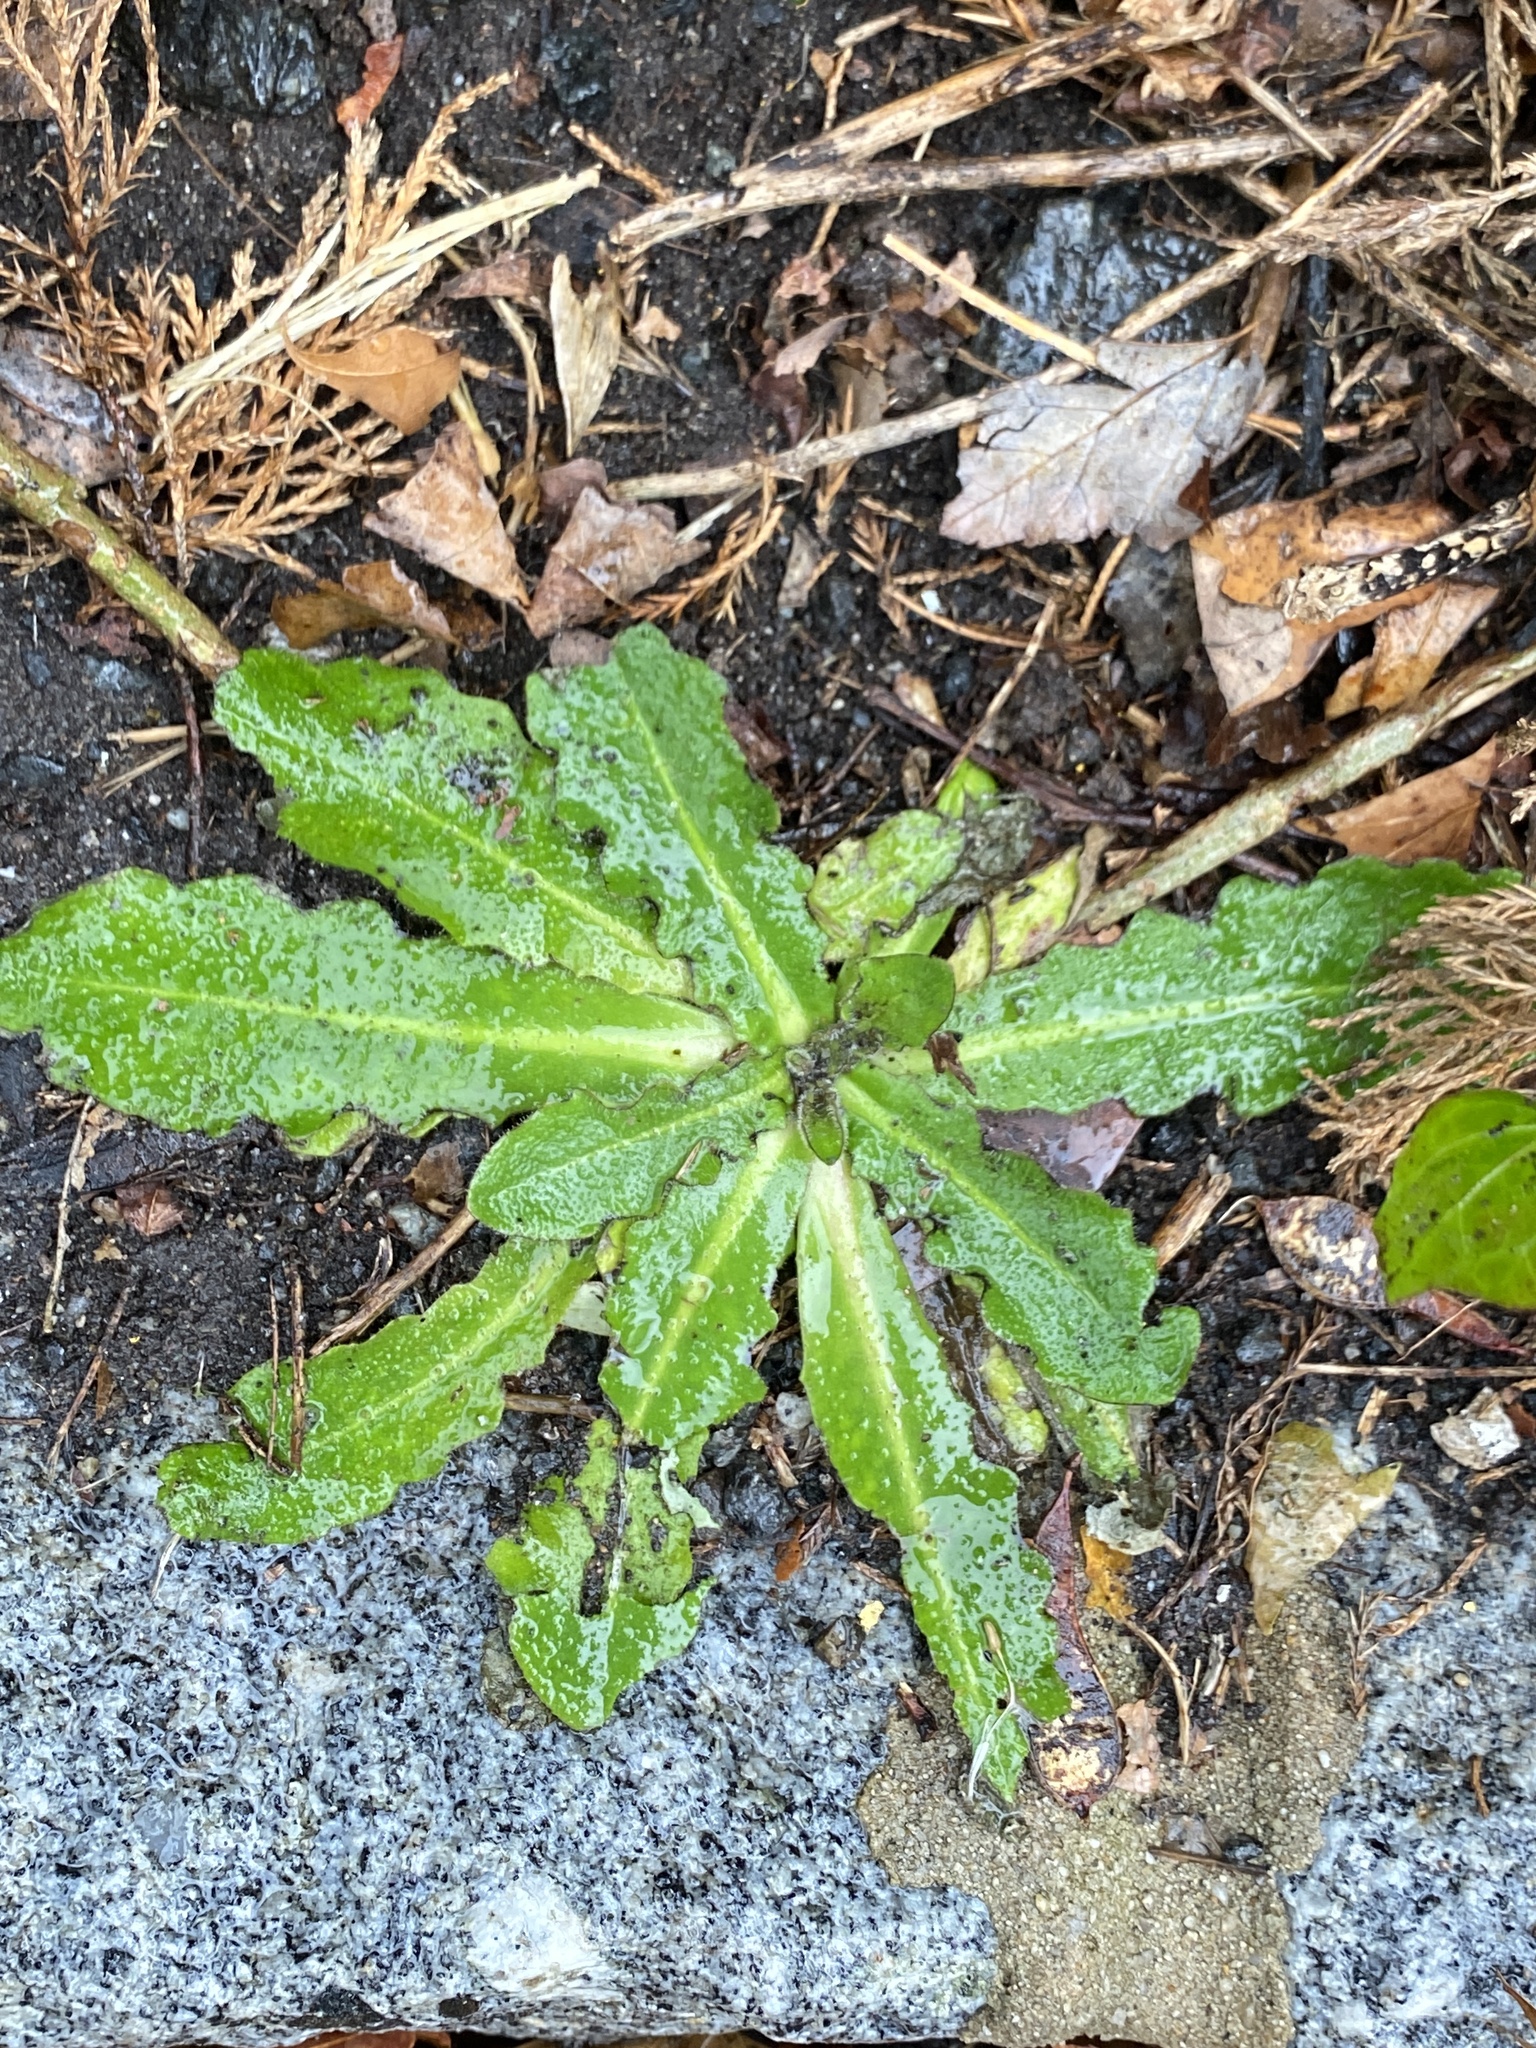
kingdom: Plantae
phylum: Tracheophyta
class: Magnoliopsida
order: Asterales
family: Asteraceae
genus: Hypochaeris
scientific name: Hypochaeris radicata
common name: Flatweed
